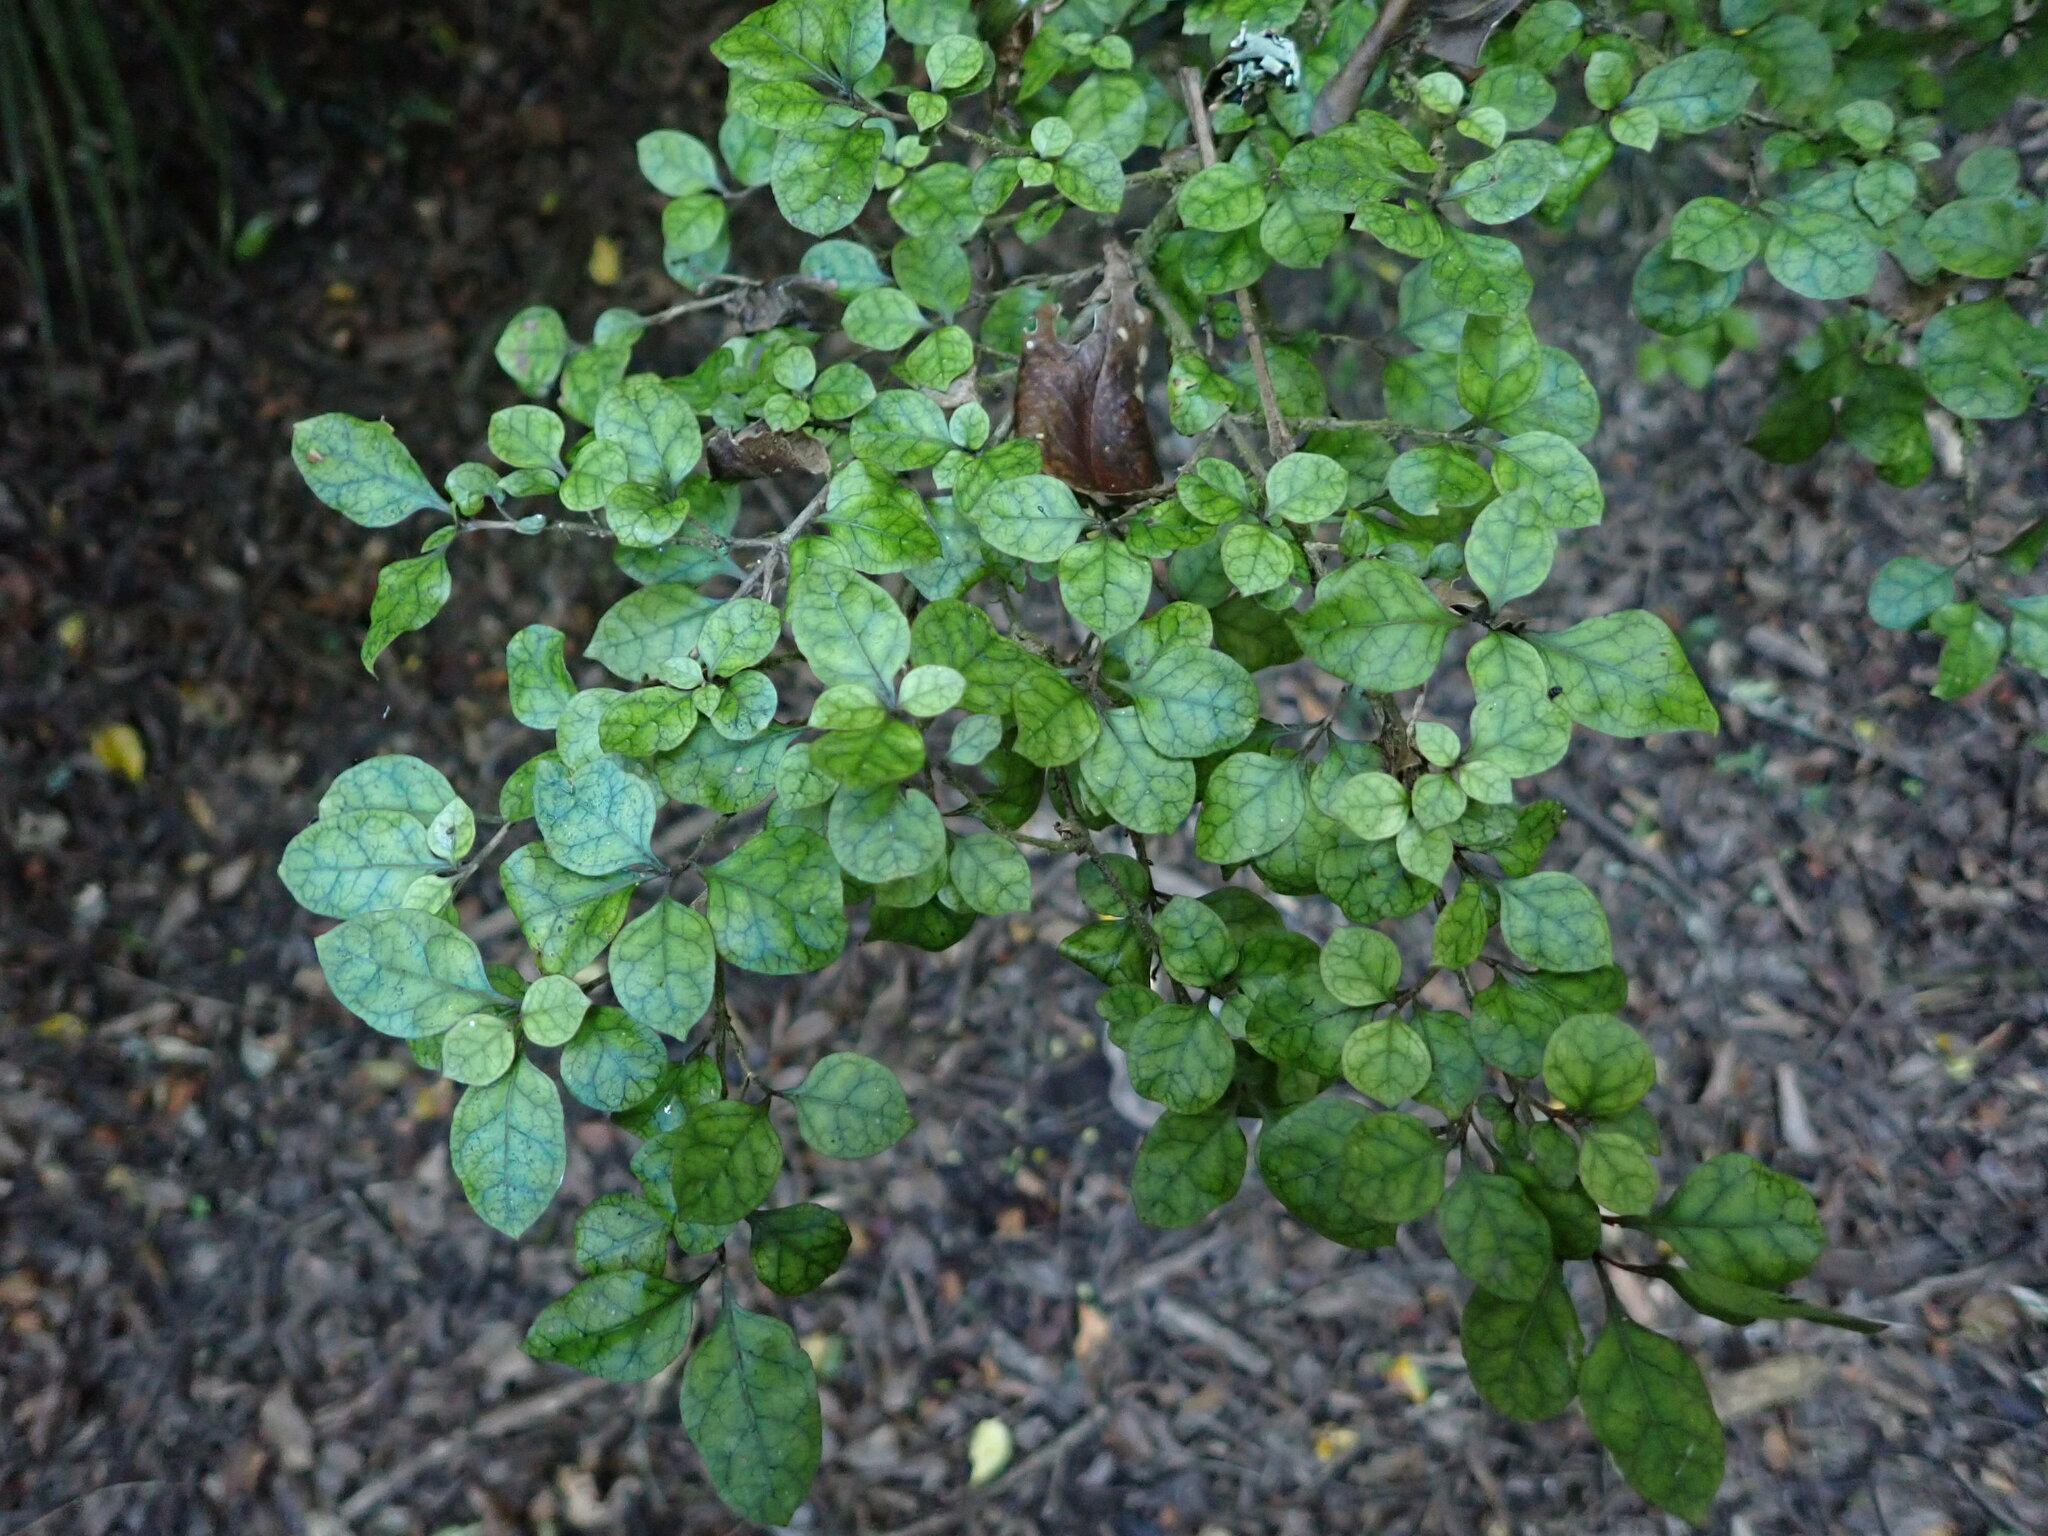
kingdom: Plantae
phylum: Tracheophyta
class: Magnoliopsida
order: Gentianales
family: Rubiaceae
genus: Coprosma
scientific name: Coprosma tenuicaulis
